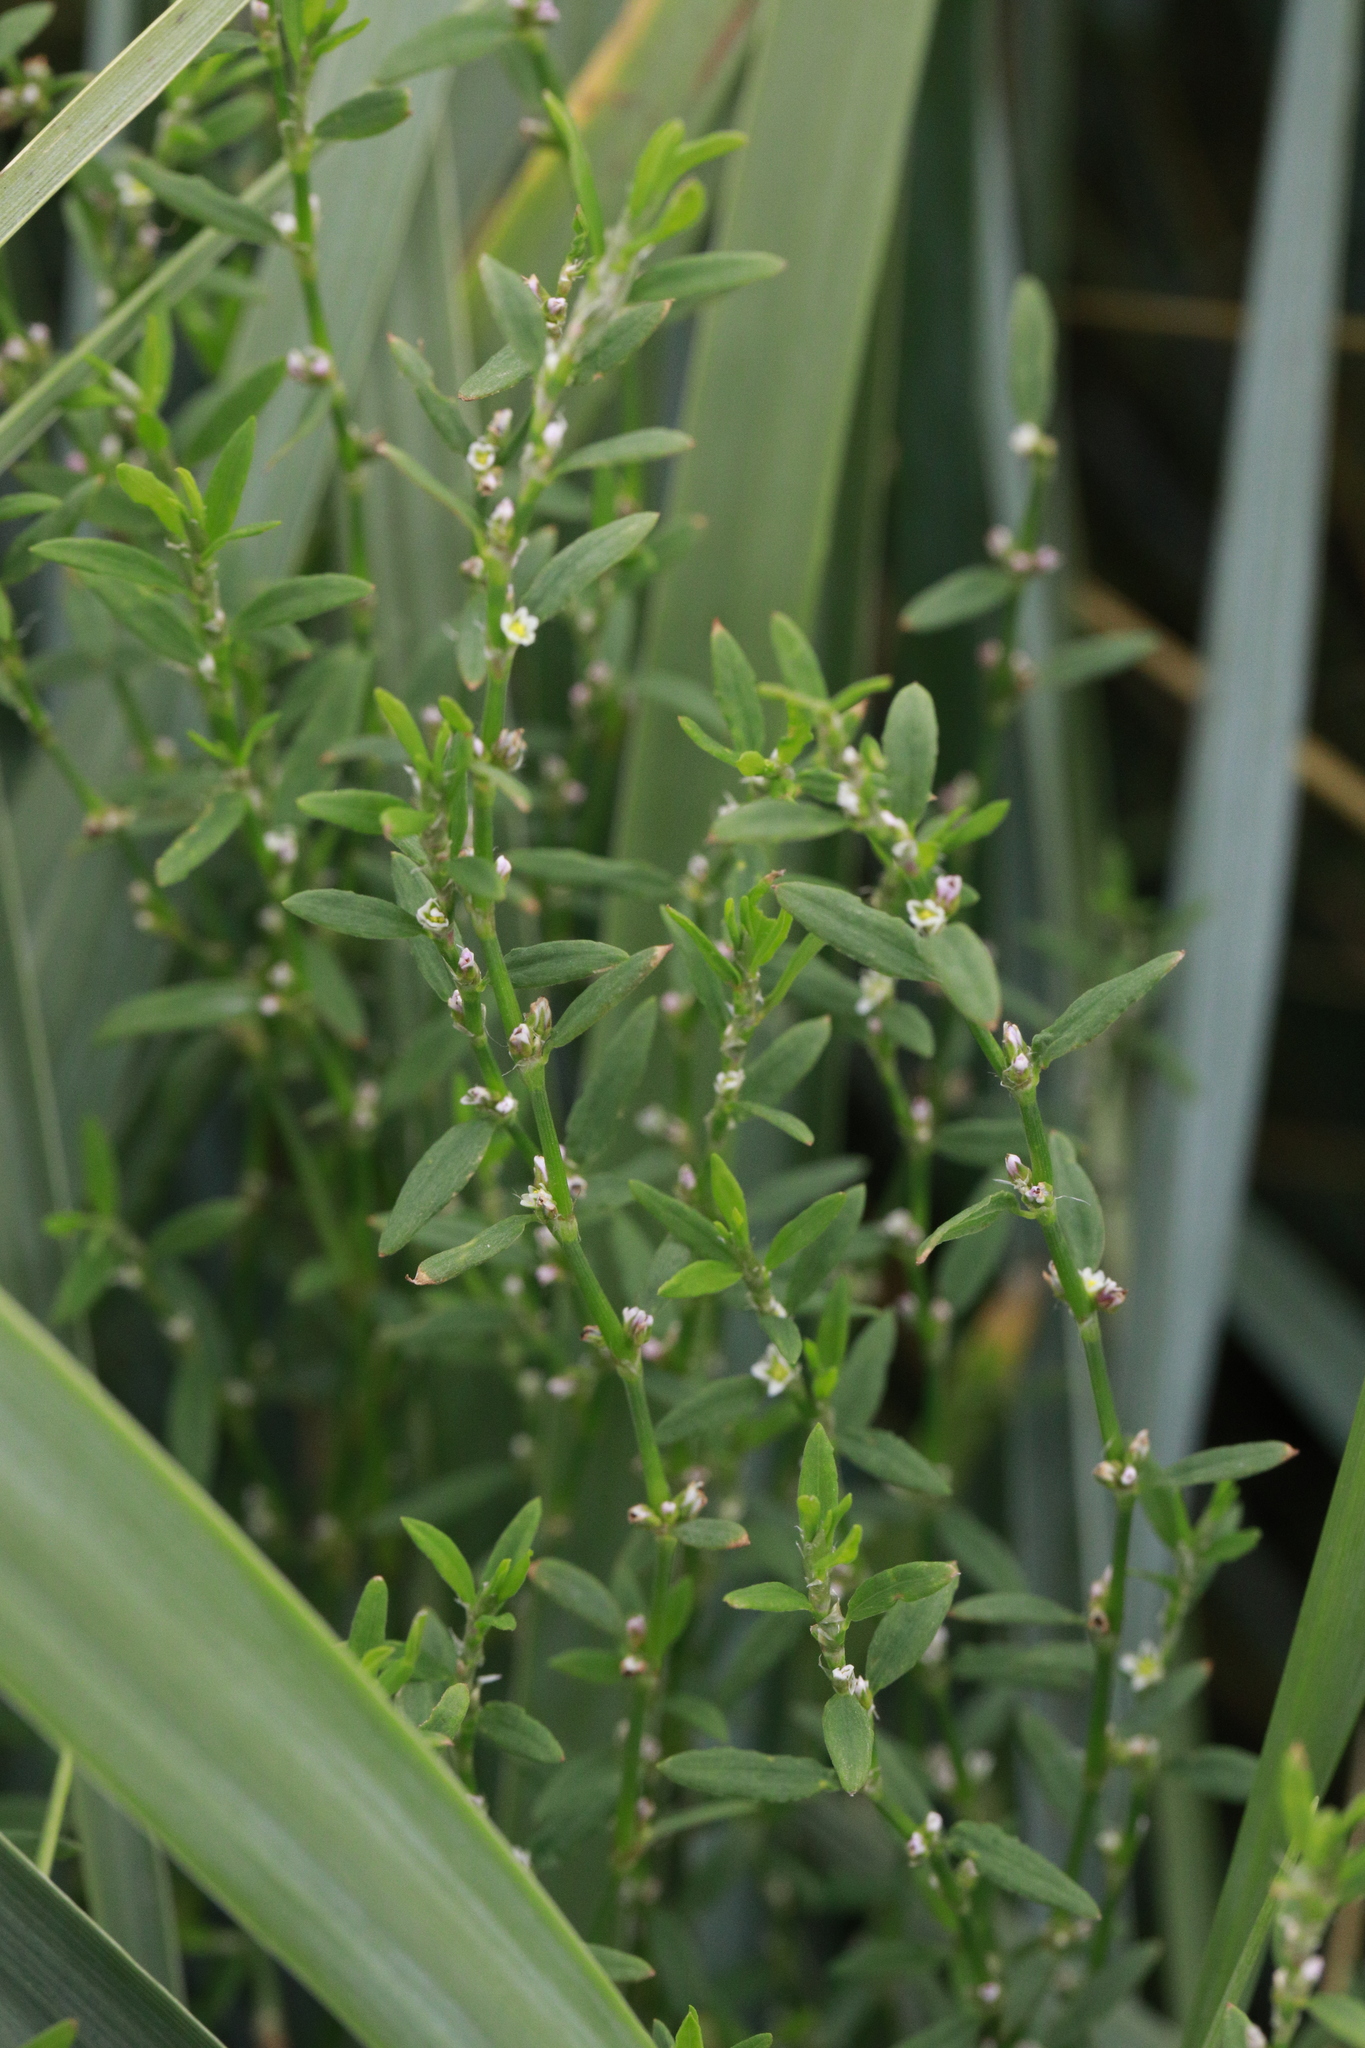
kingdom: Plantae
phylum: Tracheophyta
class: Magnoliopsida
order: Caryophyllales
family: Polygonaceae
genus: Polygonum
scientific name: Polygonum aviculare
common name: Prostrate knotweed
